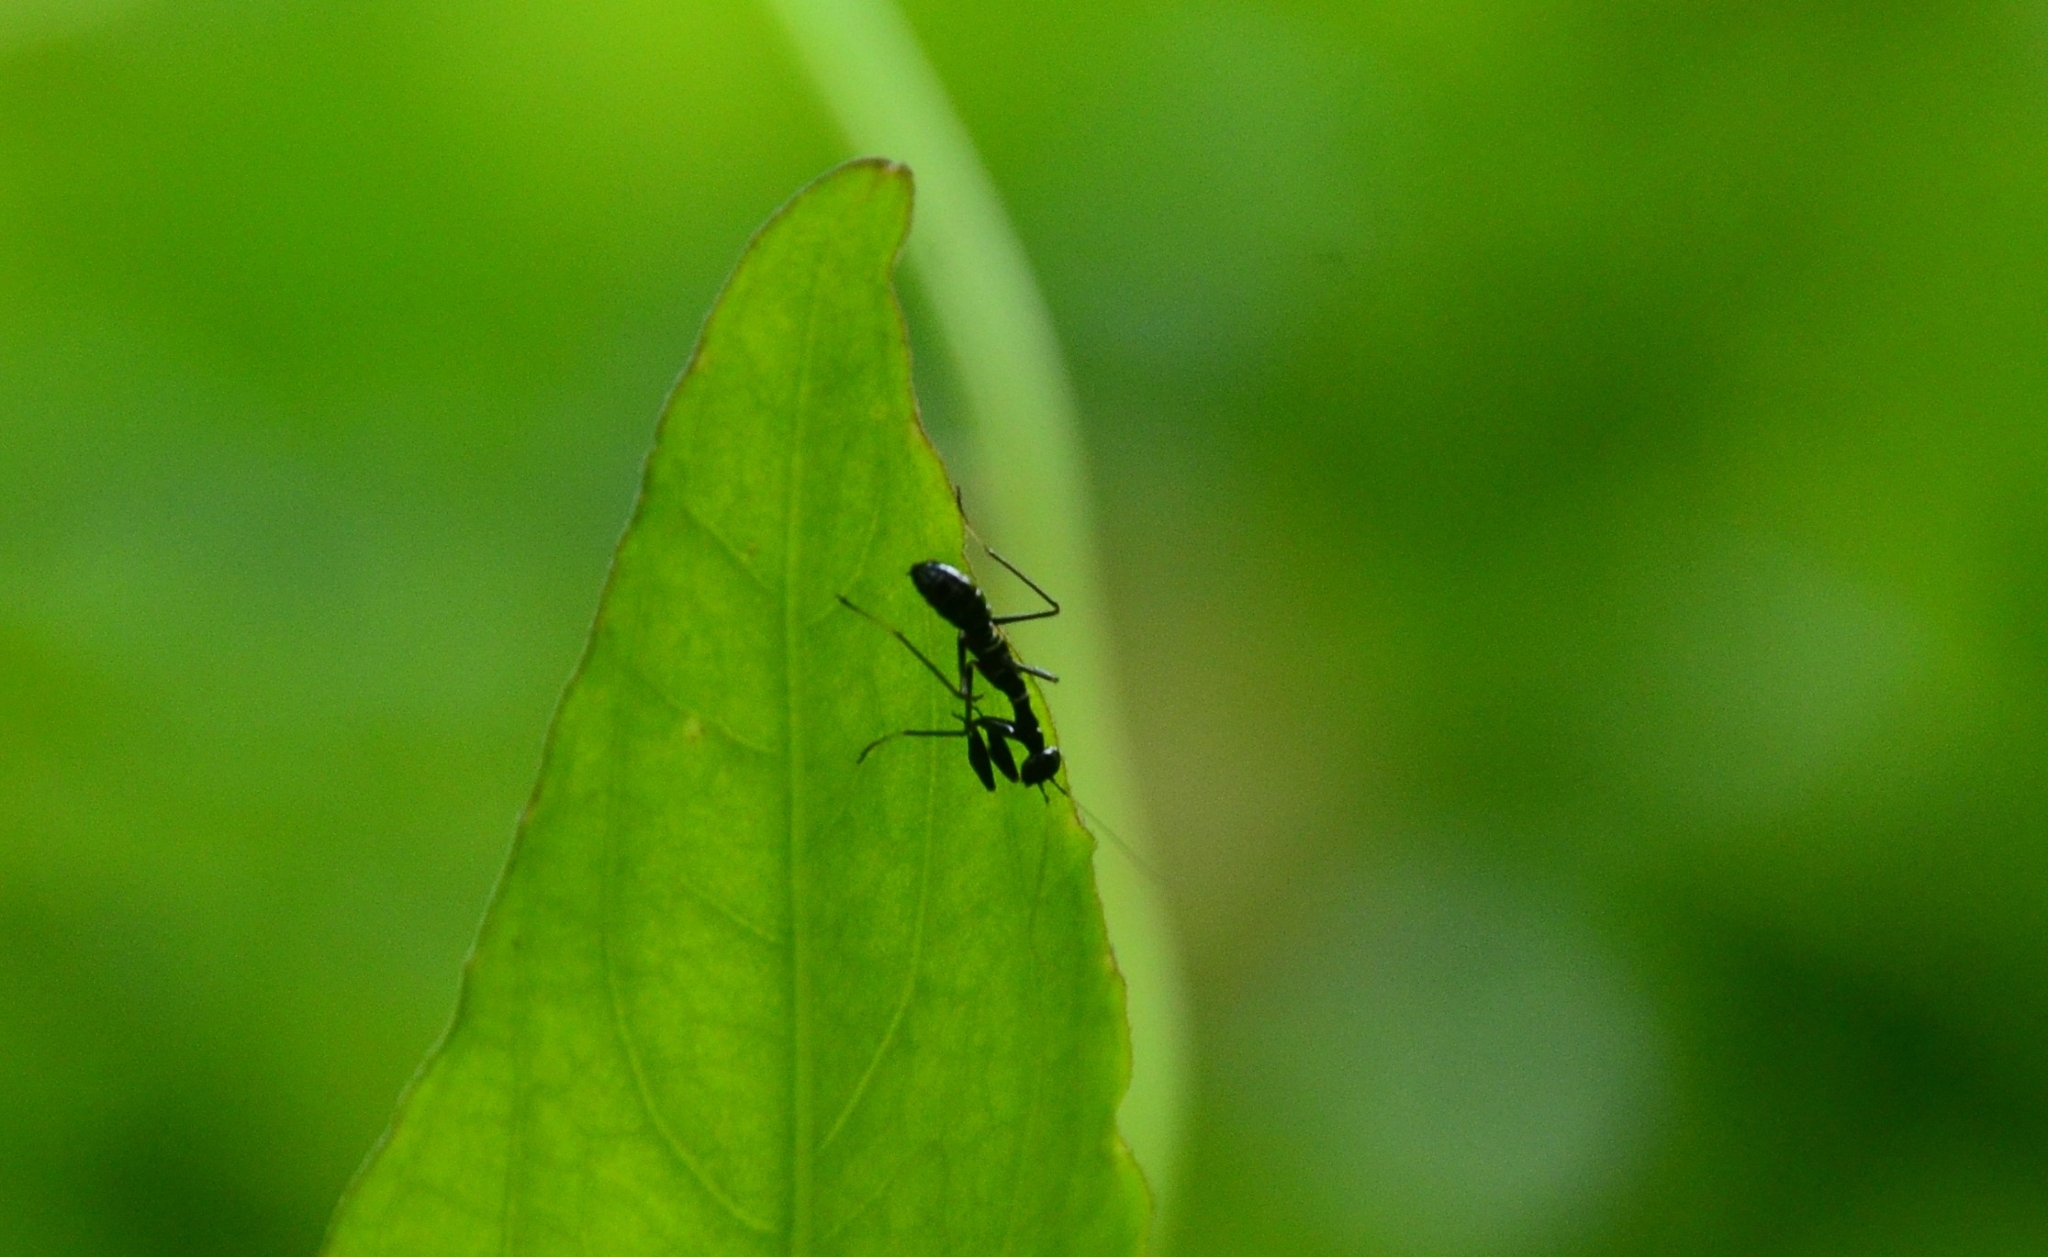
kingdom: Animalia
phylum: Arthropoda
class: Insecta
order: Mantodea
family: Hymenopodidae
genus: Odontomantis
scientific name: Odontomantis planiceps
